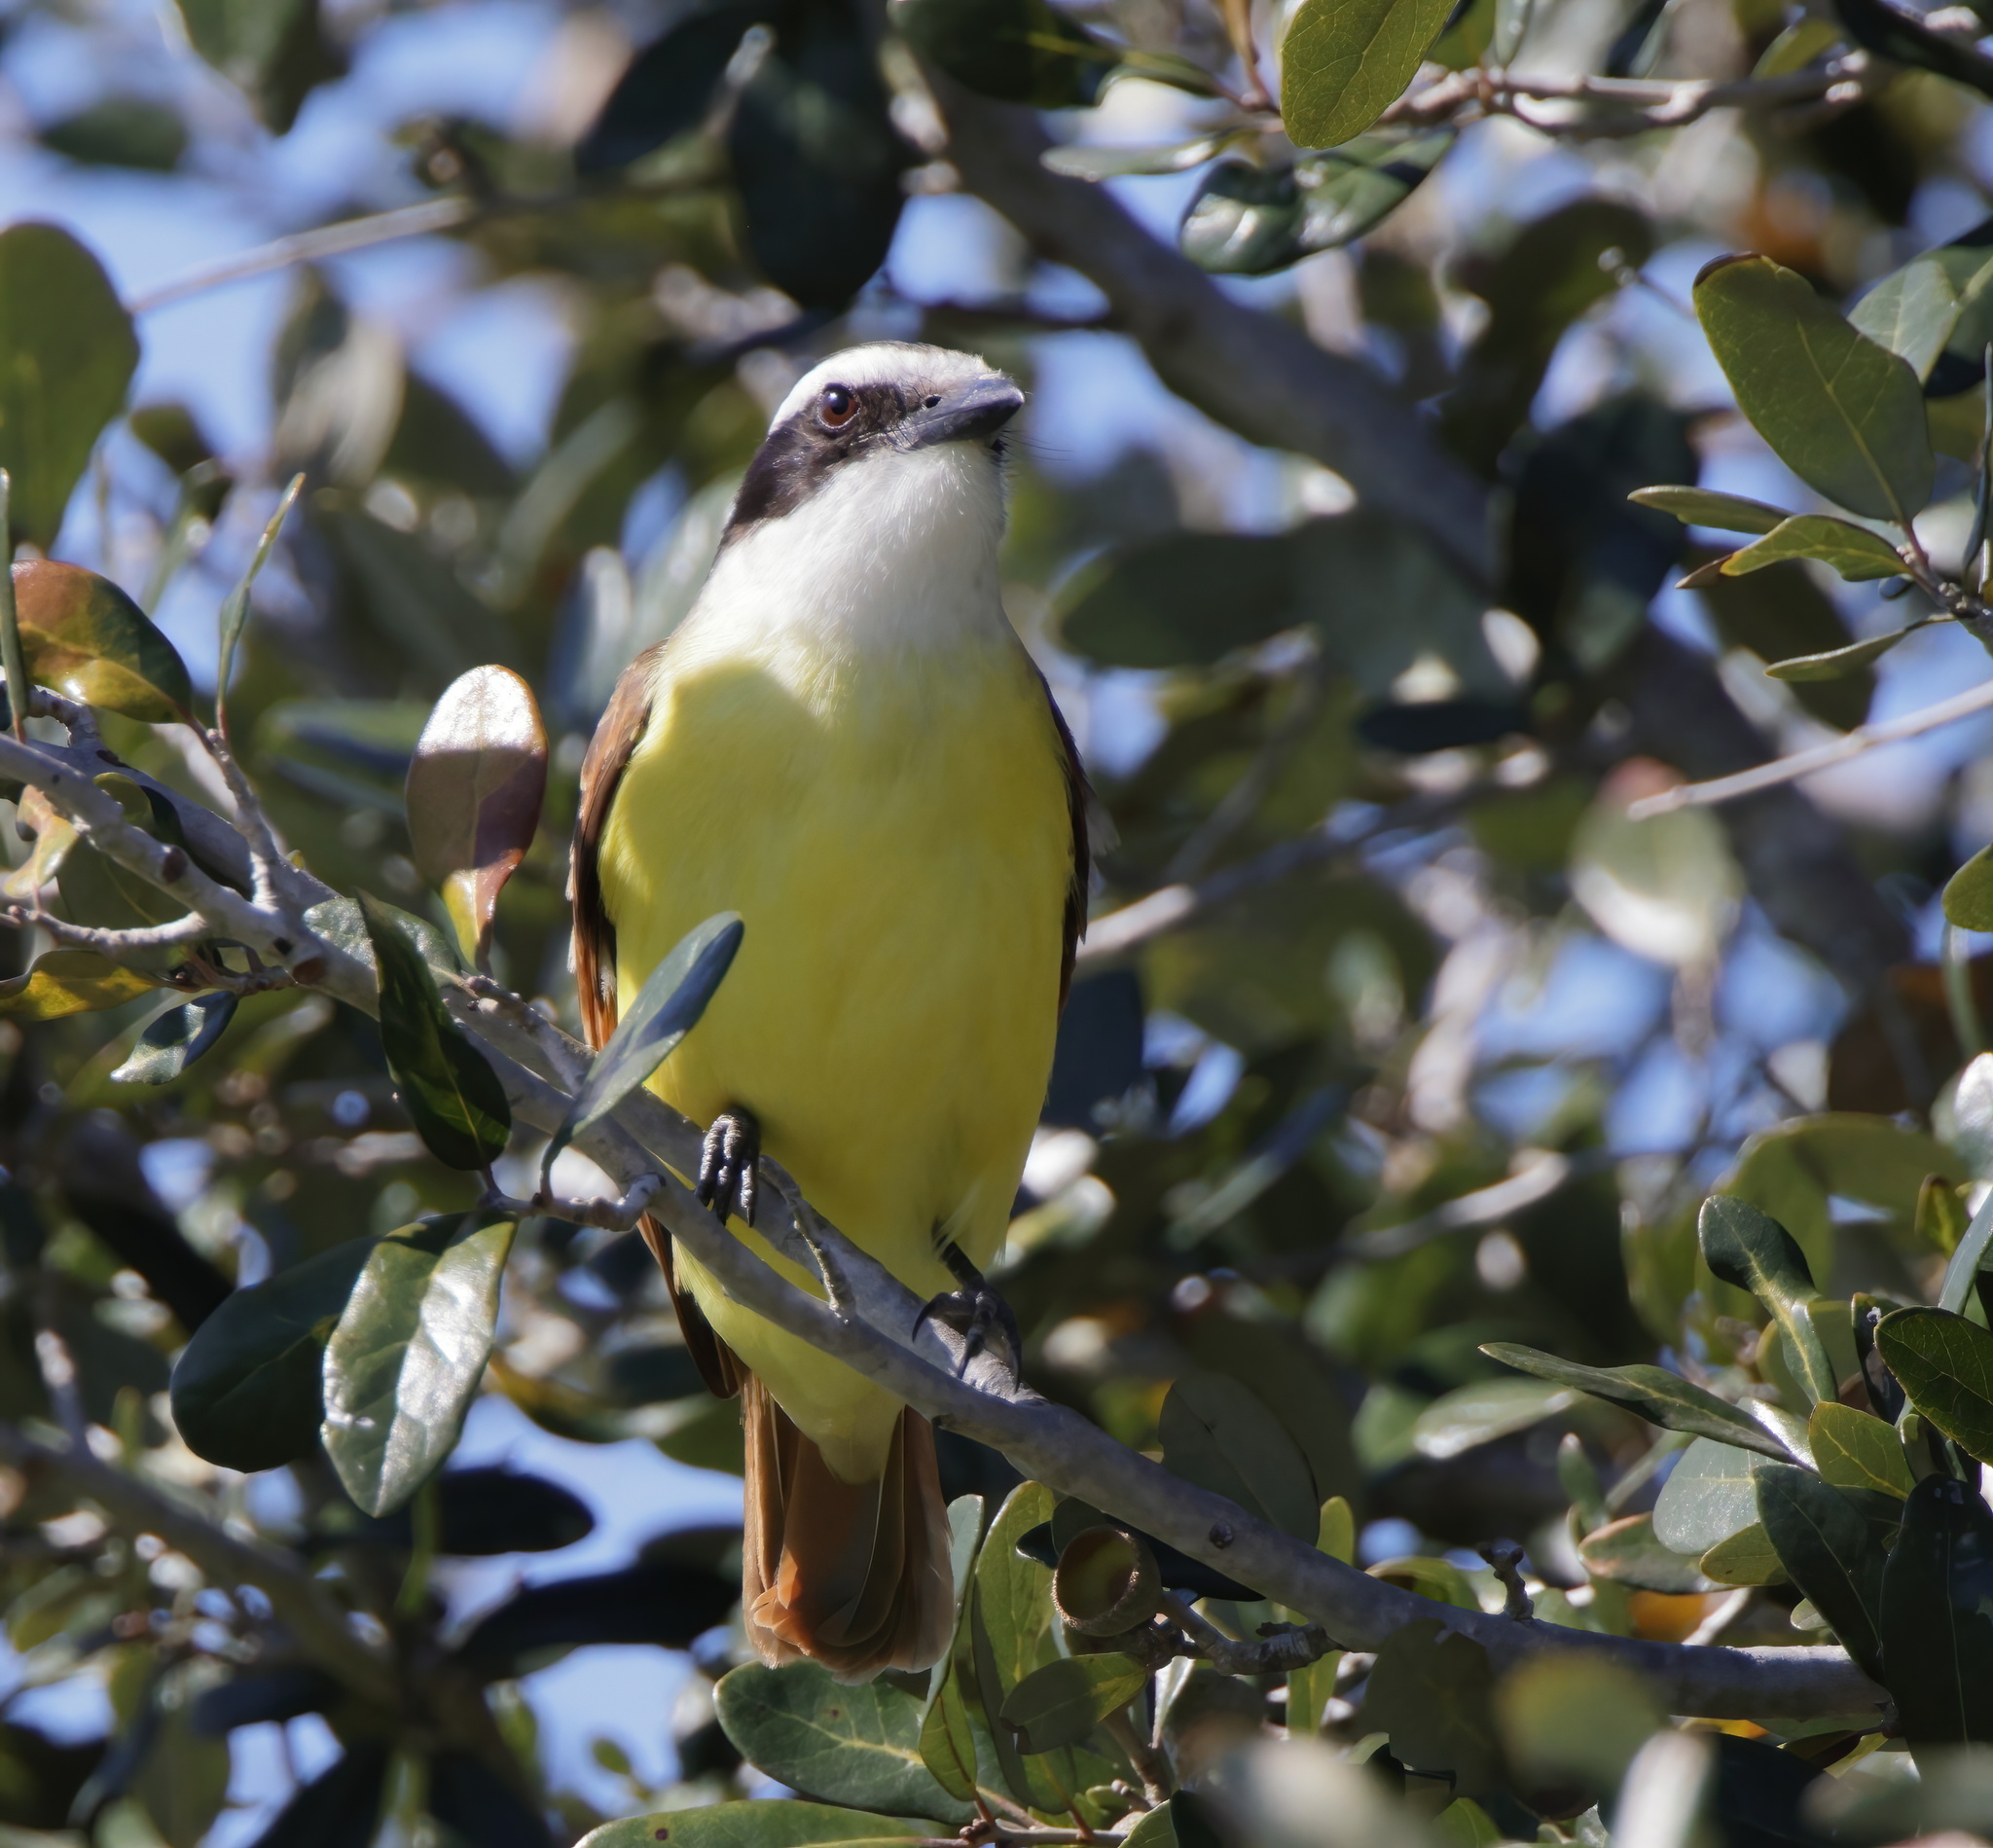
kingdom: Animalia
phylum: Chordata
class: Aves
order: Passeriformes
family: Tyrannidae
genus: Pitangus
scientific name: Pitangus sulphuratus
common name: Great kiskadee
